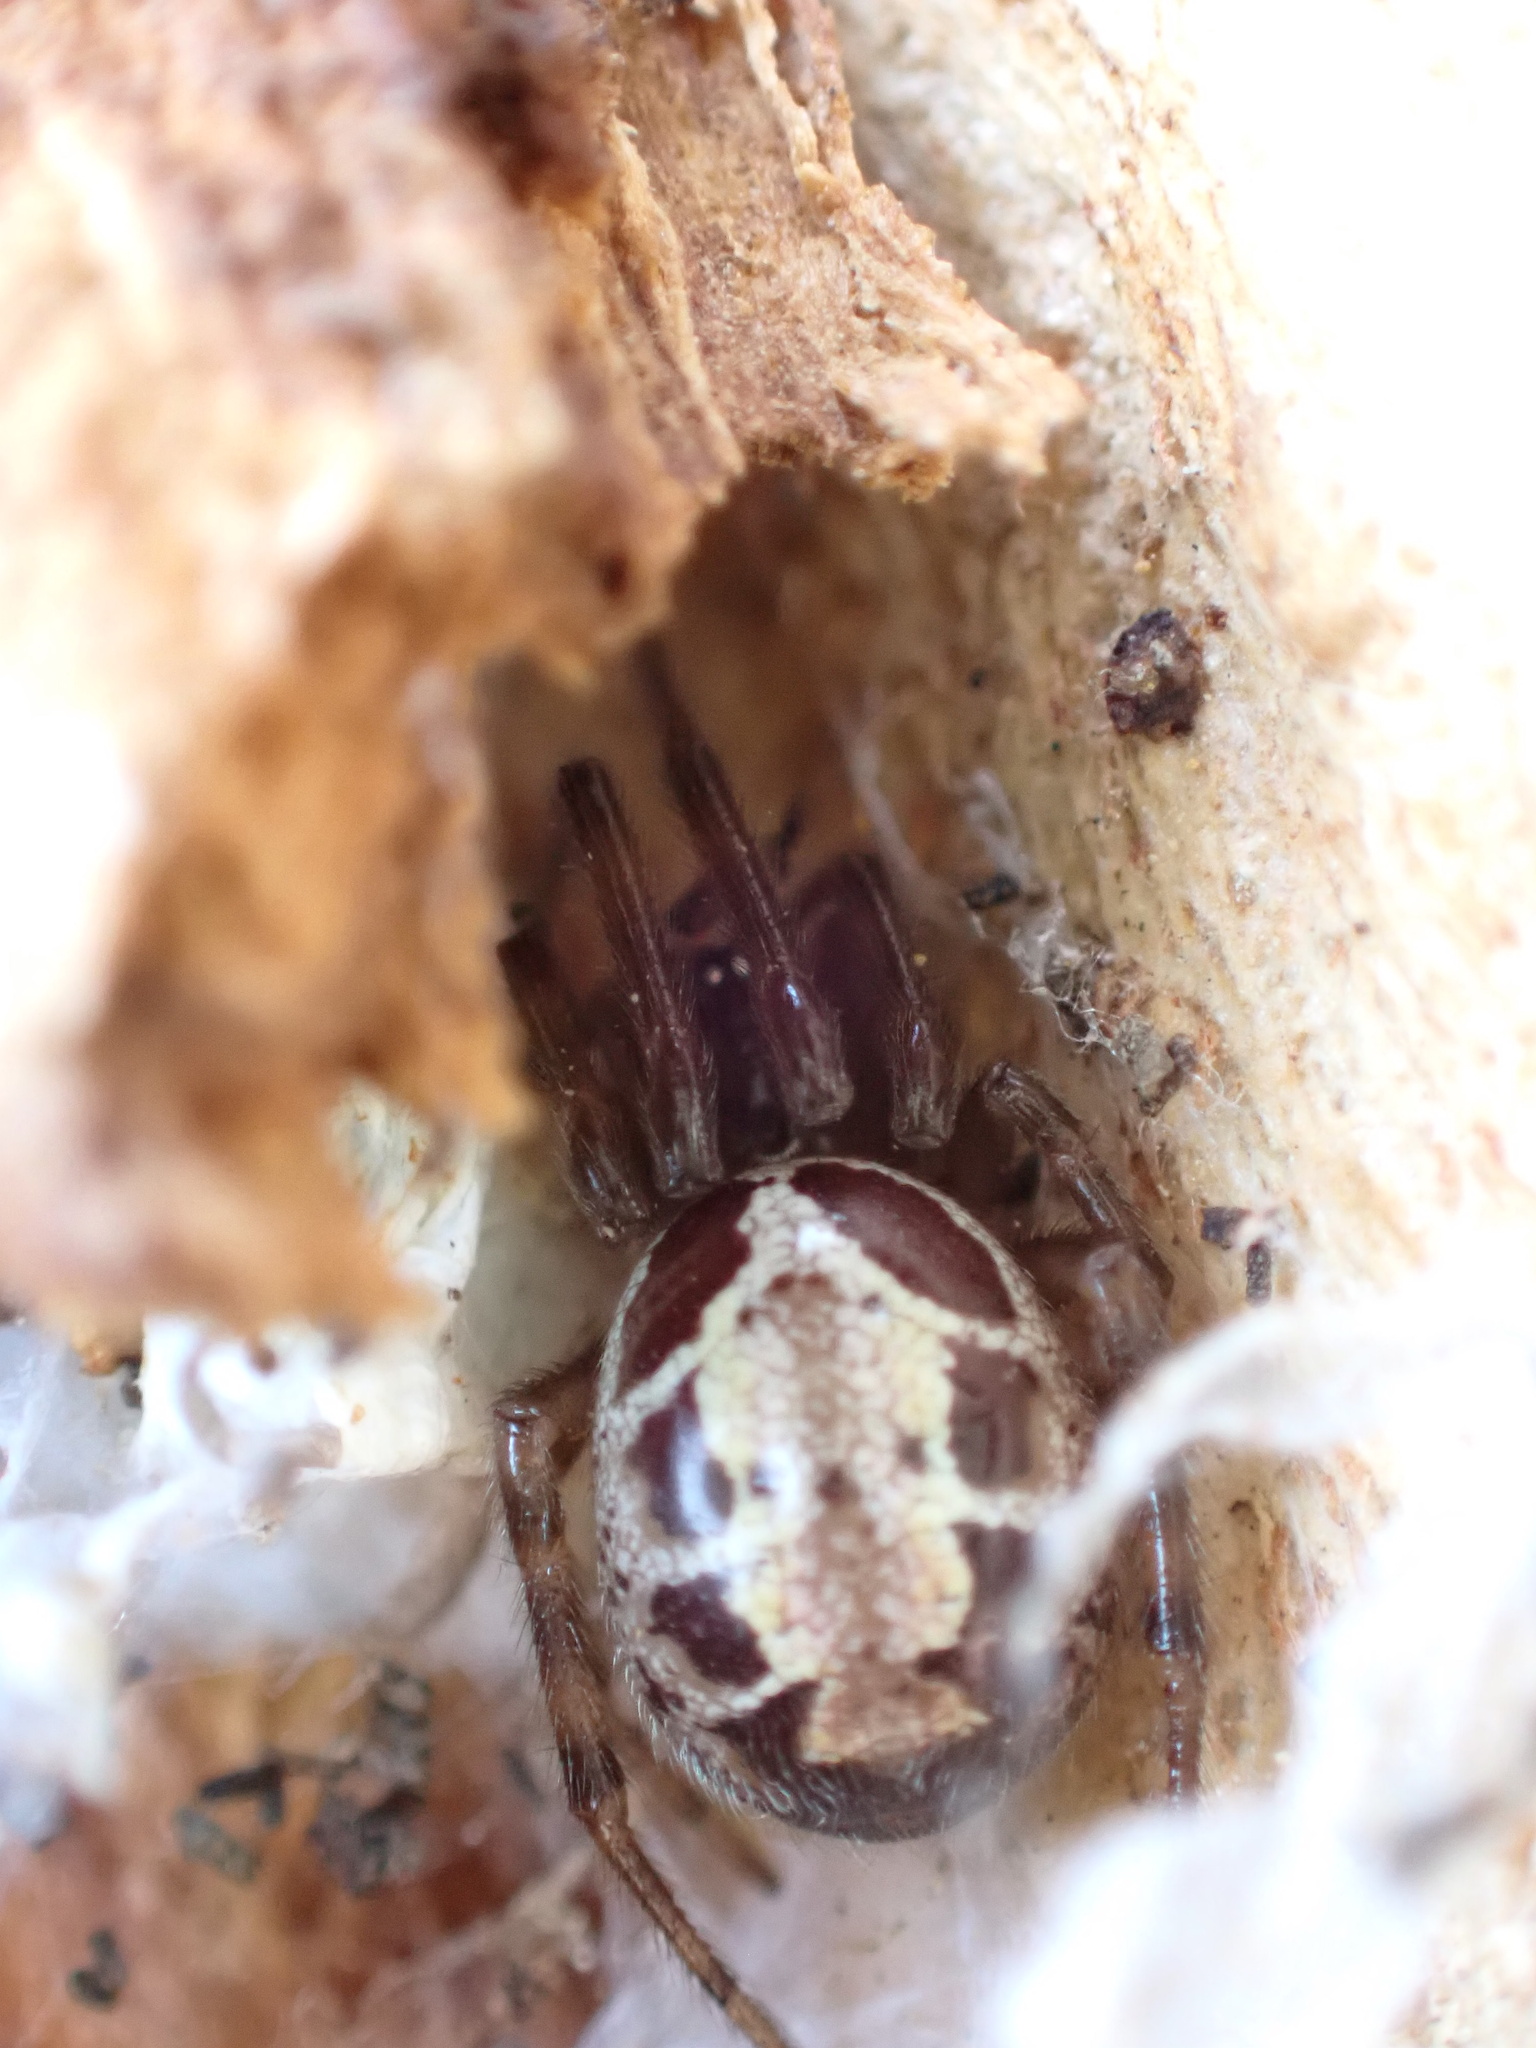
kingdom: Animalia
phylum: Arthropoda
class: Arachnida
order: Araneae
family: Theridiidae
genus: Steatoda
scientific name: Steatoda nobilis
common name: Cobweb weaver
